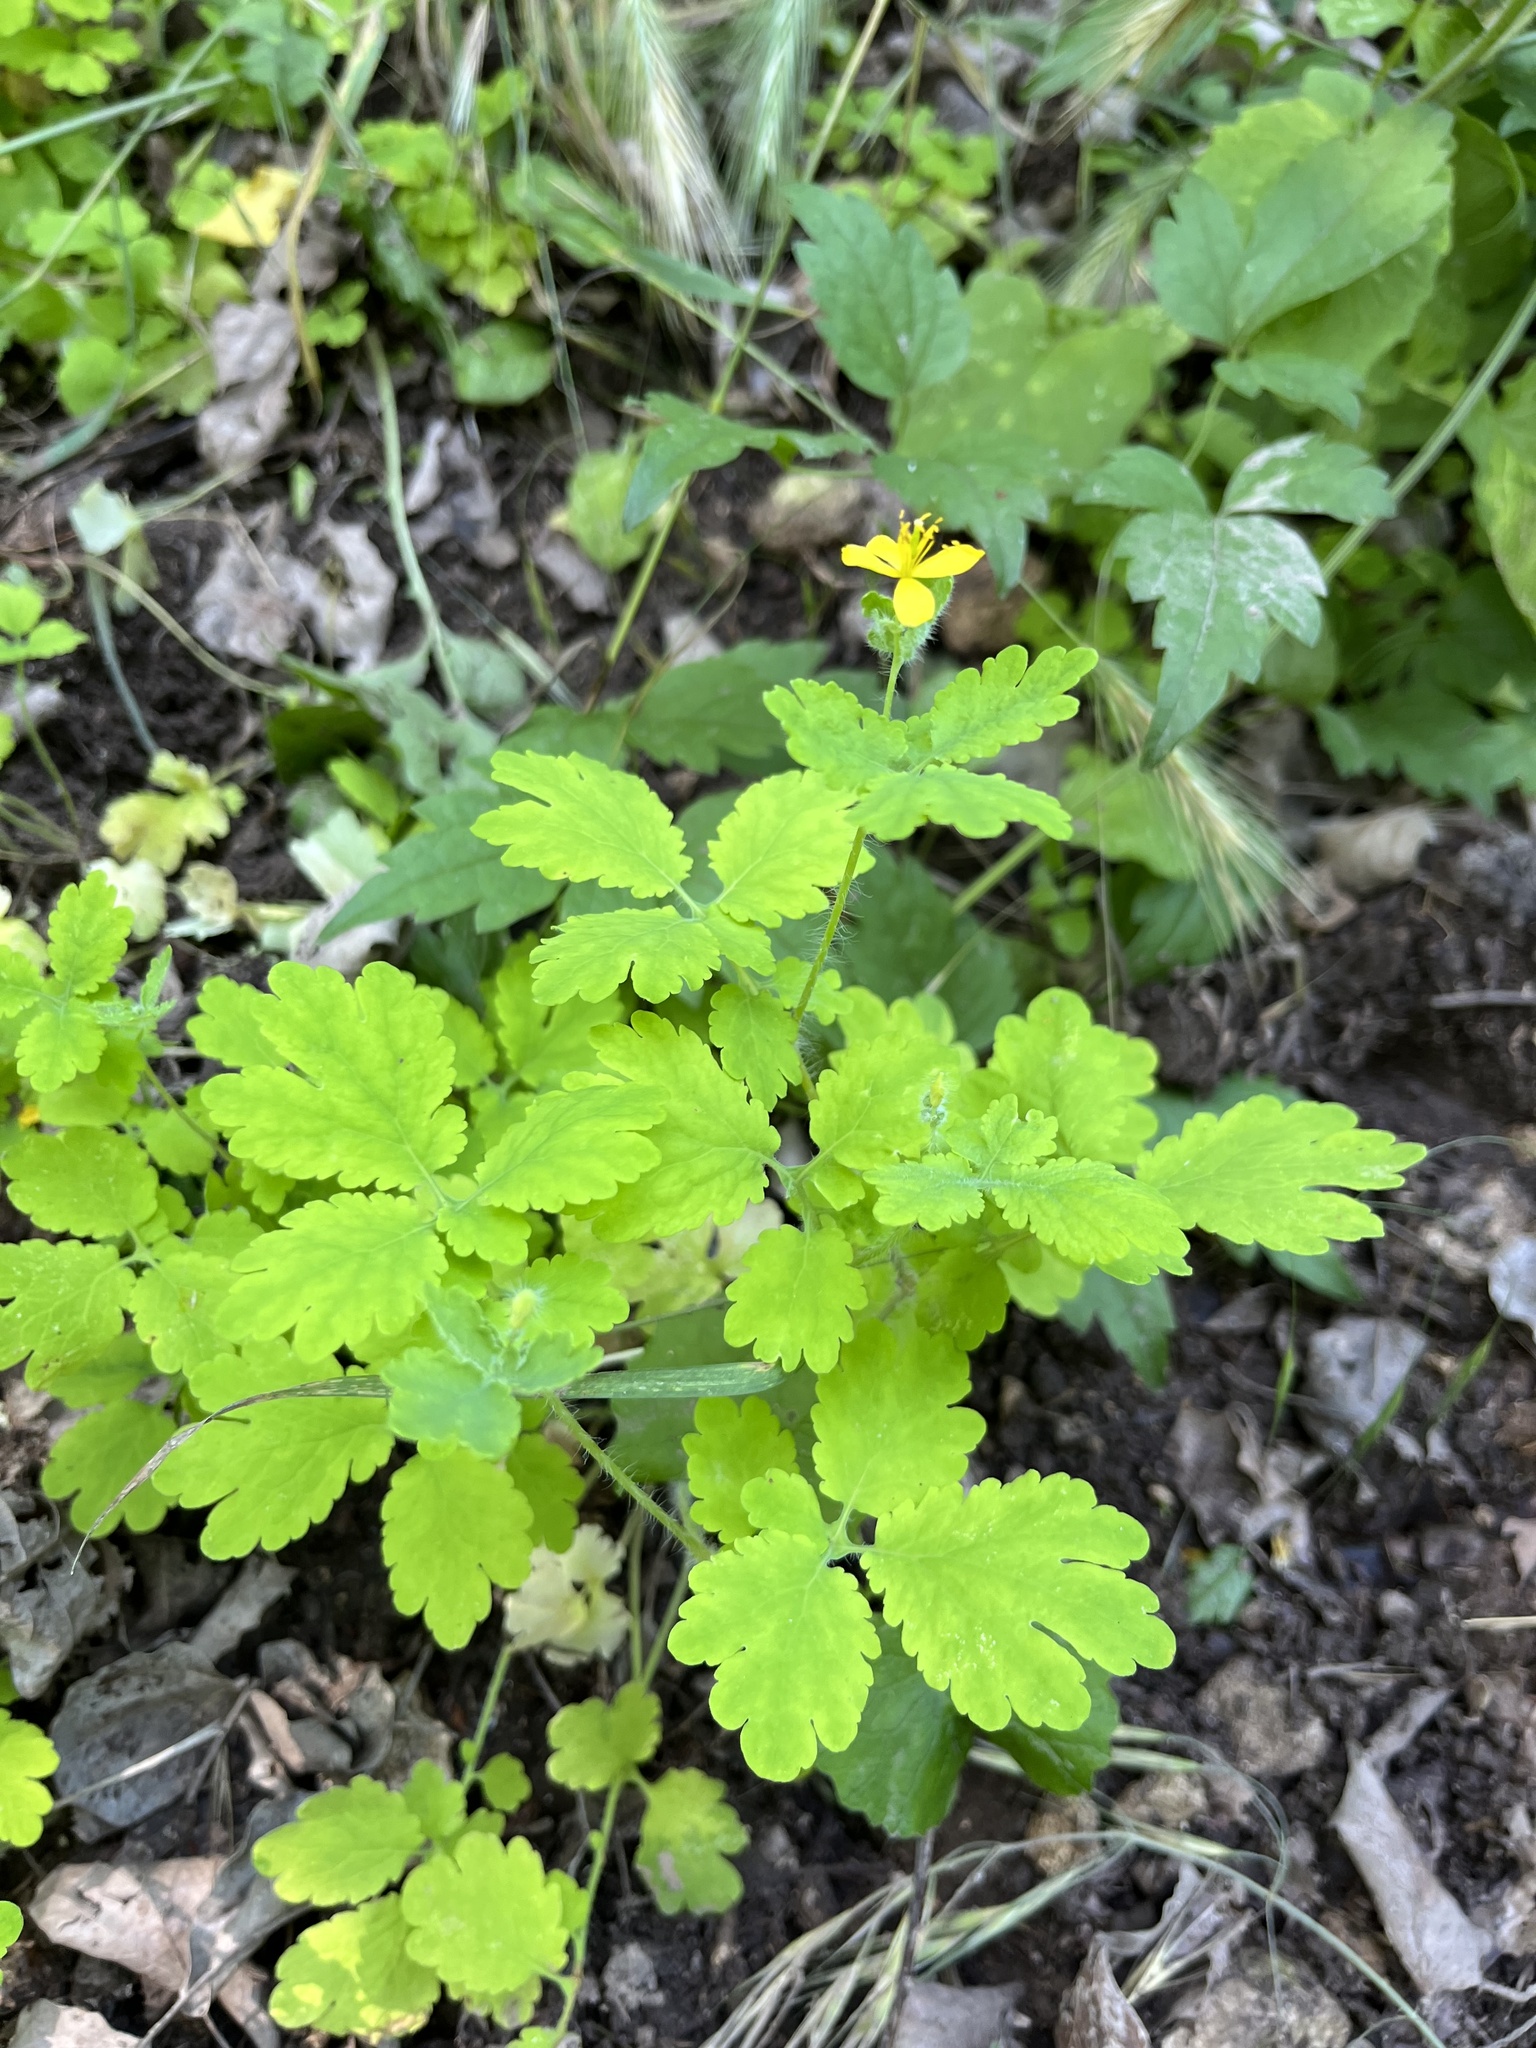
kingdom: Plantae
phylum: Tracheophyta
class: Magnoliopsida
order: Ranunculales
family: Papaveraceae
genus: Chelidonium
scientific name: Chelidonium majus
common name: Greater celandine
